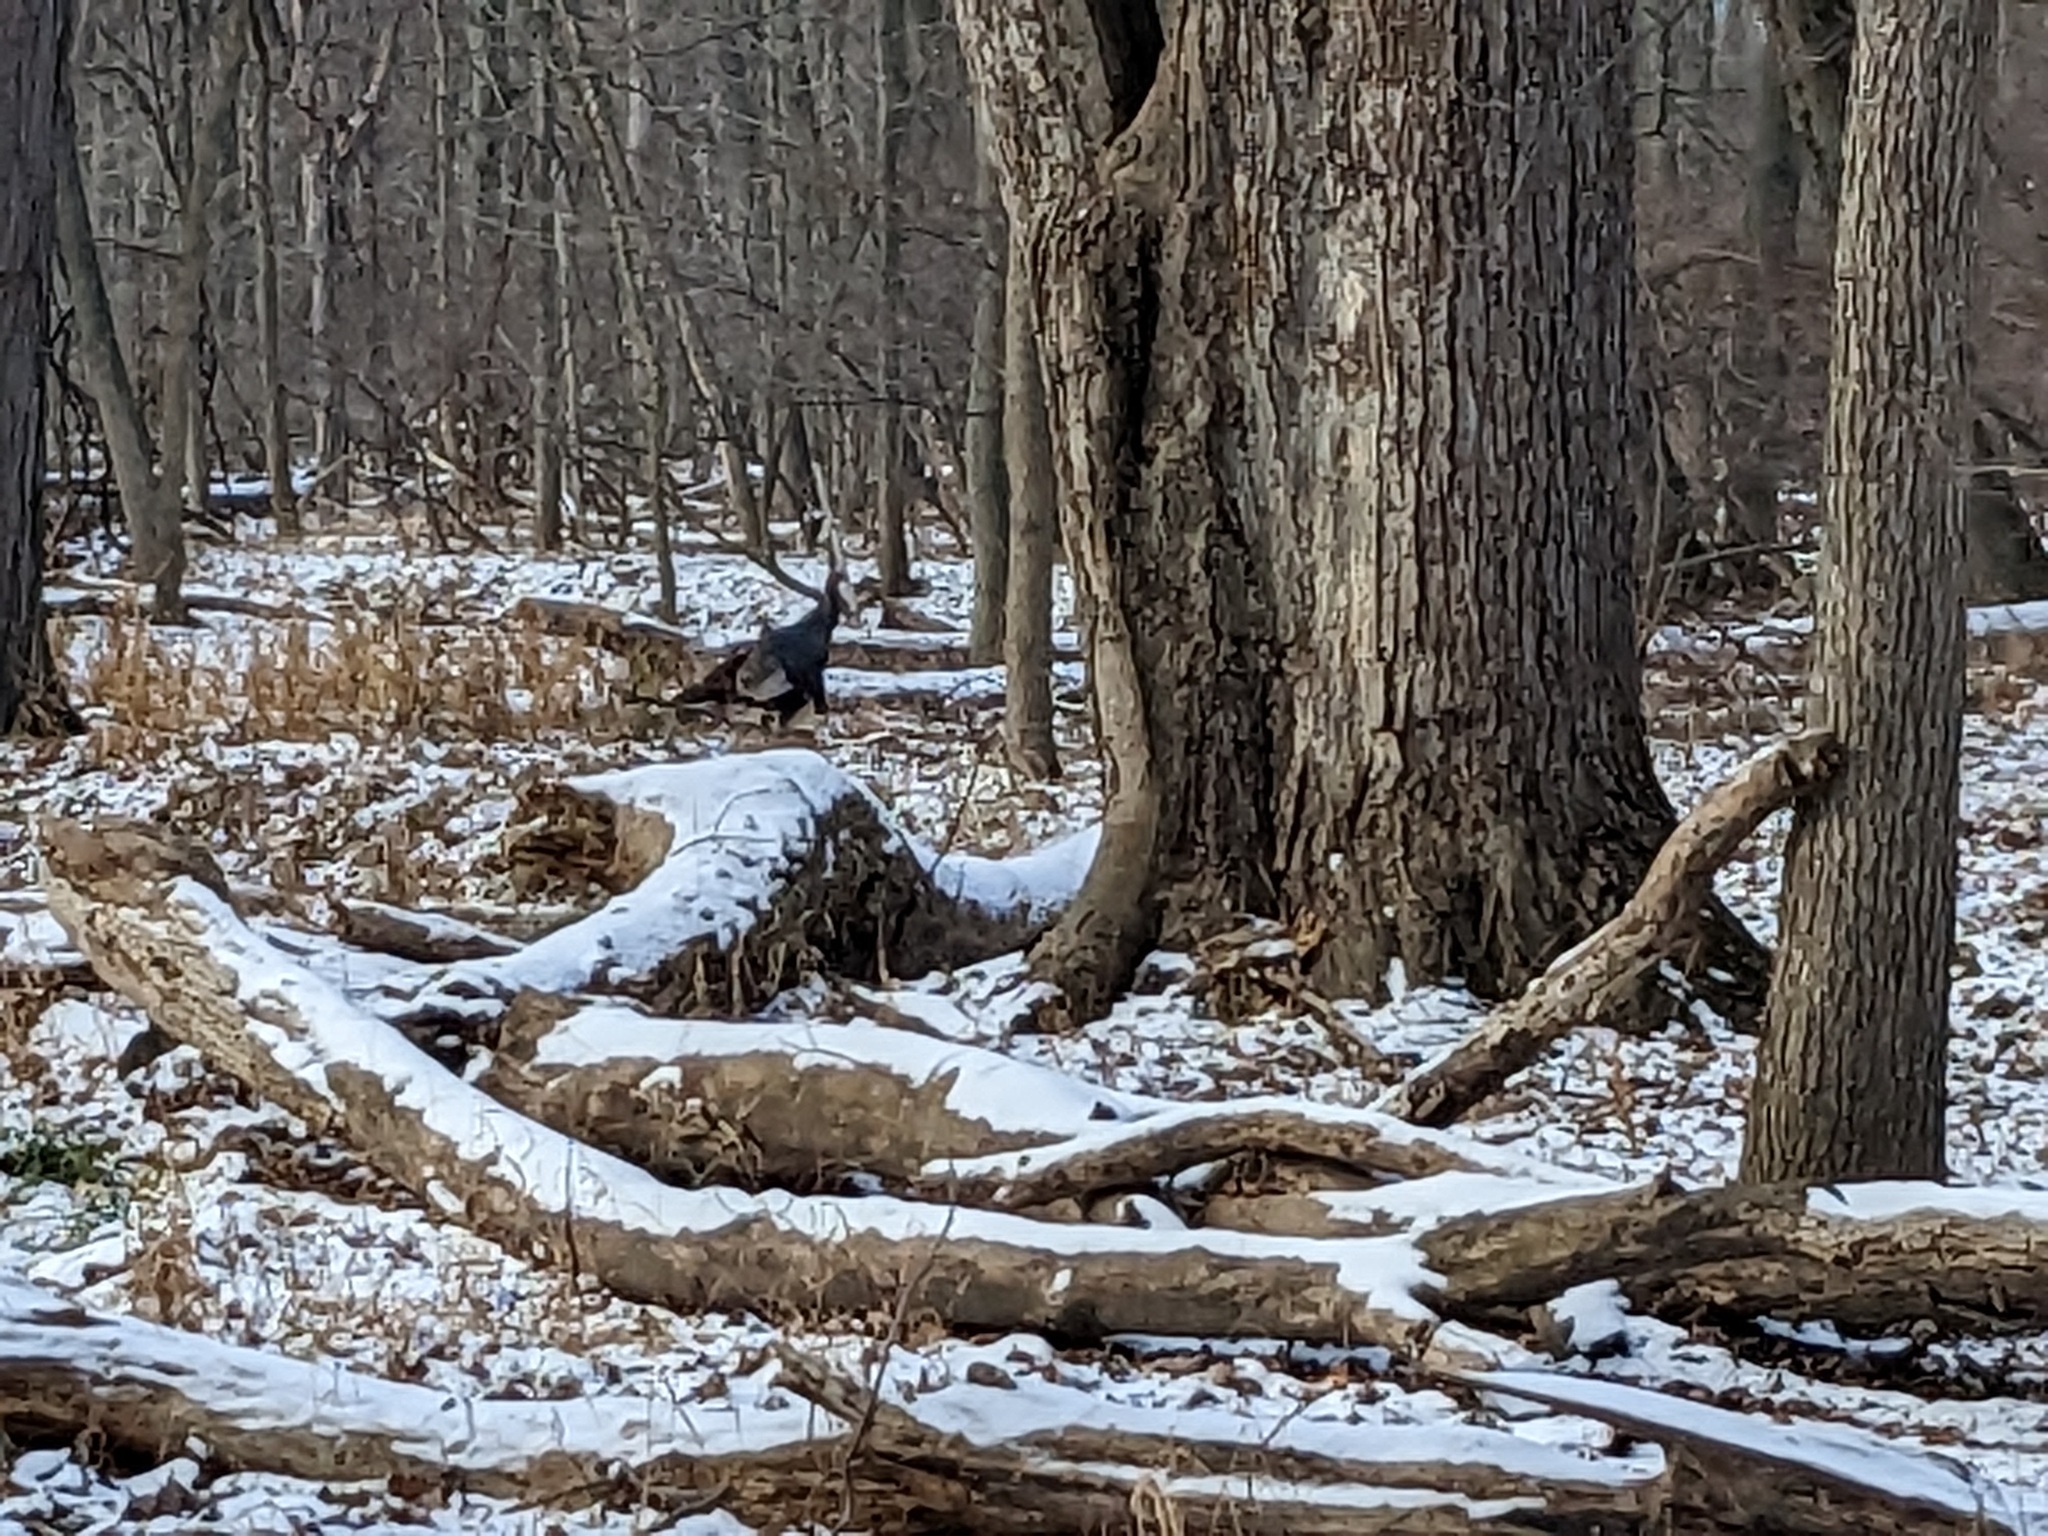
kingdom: Animalia
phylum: Chordata
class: Aves
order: Galliformes
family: Phasianidae
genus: Meleagris
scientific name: Meleagris gallopavo
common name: Wild turkey
